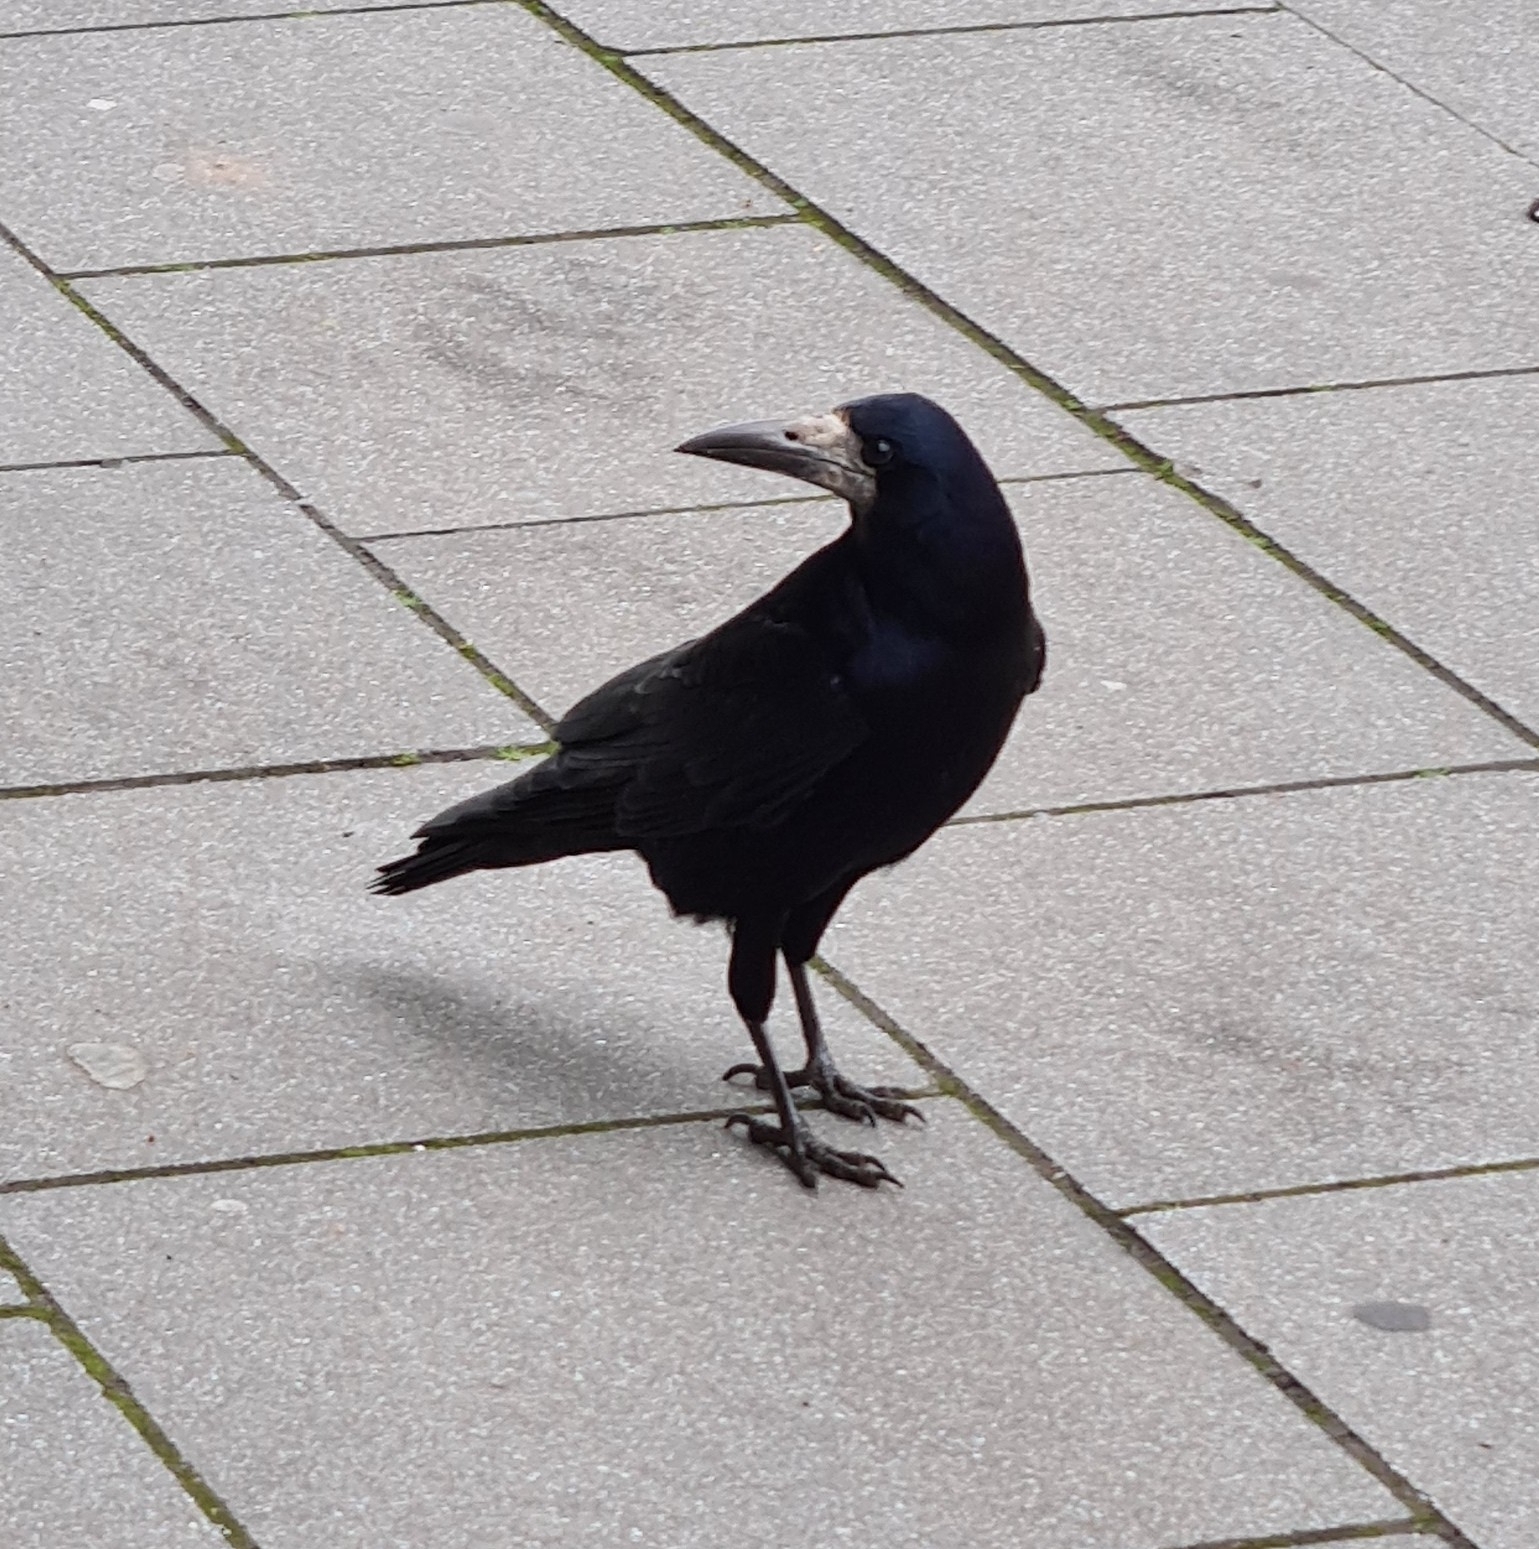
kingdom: Animalia
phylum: Chordata
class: Aves
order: Passeriformes
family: Corvidae
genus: Corvus
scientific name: Corvus frugilegus
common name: Rook
